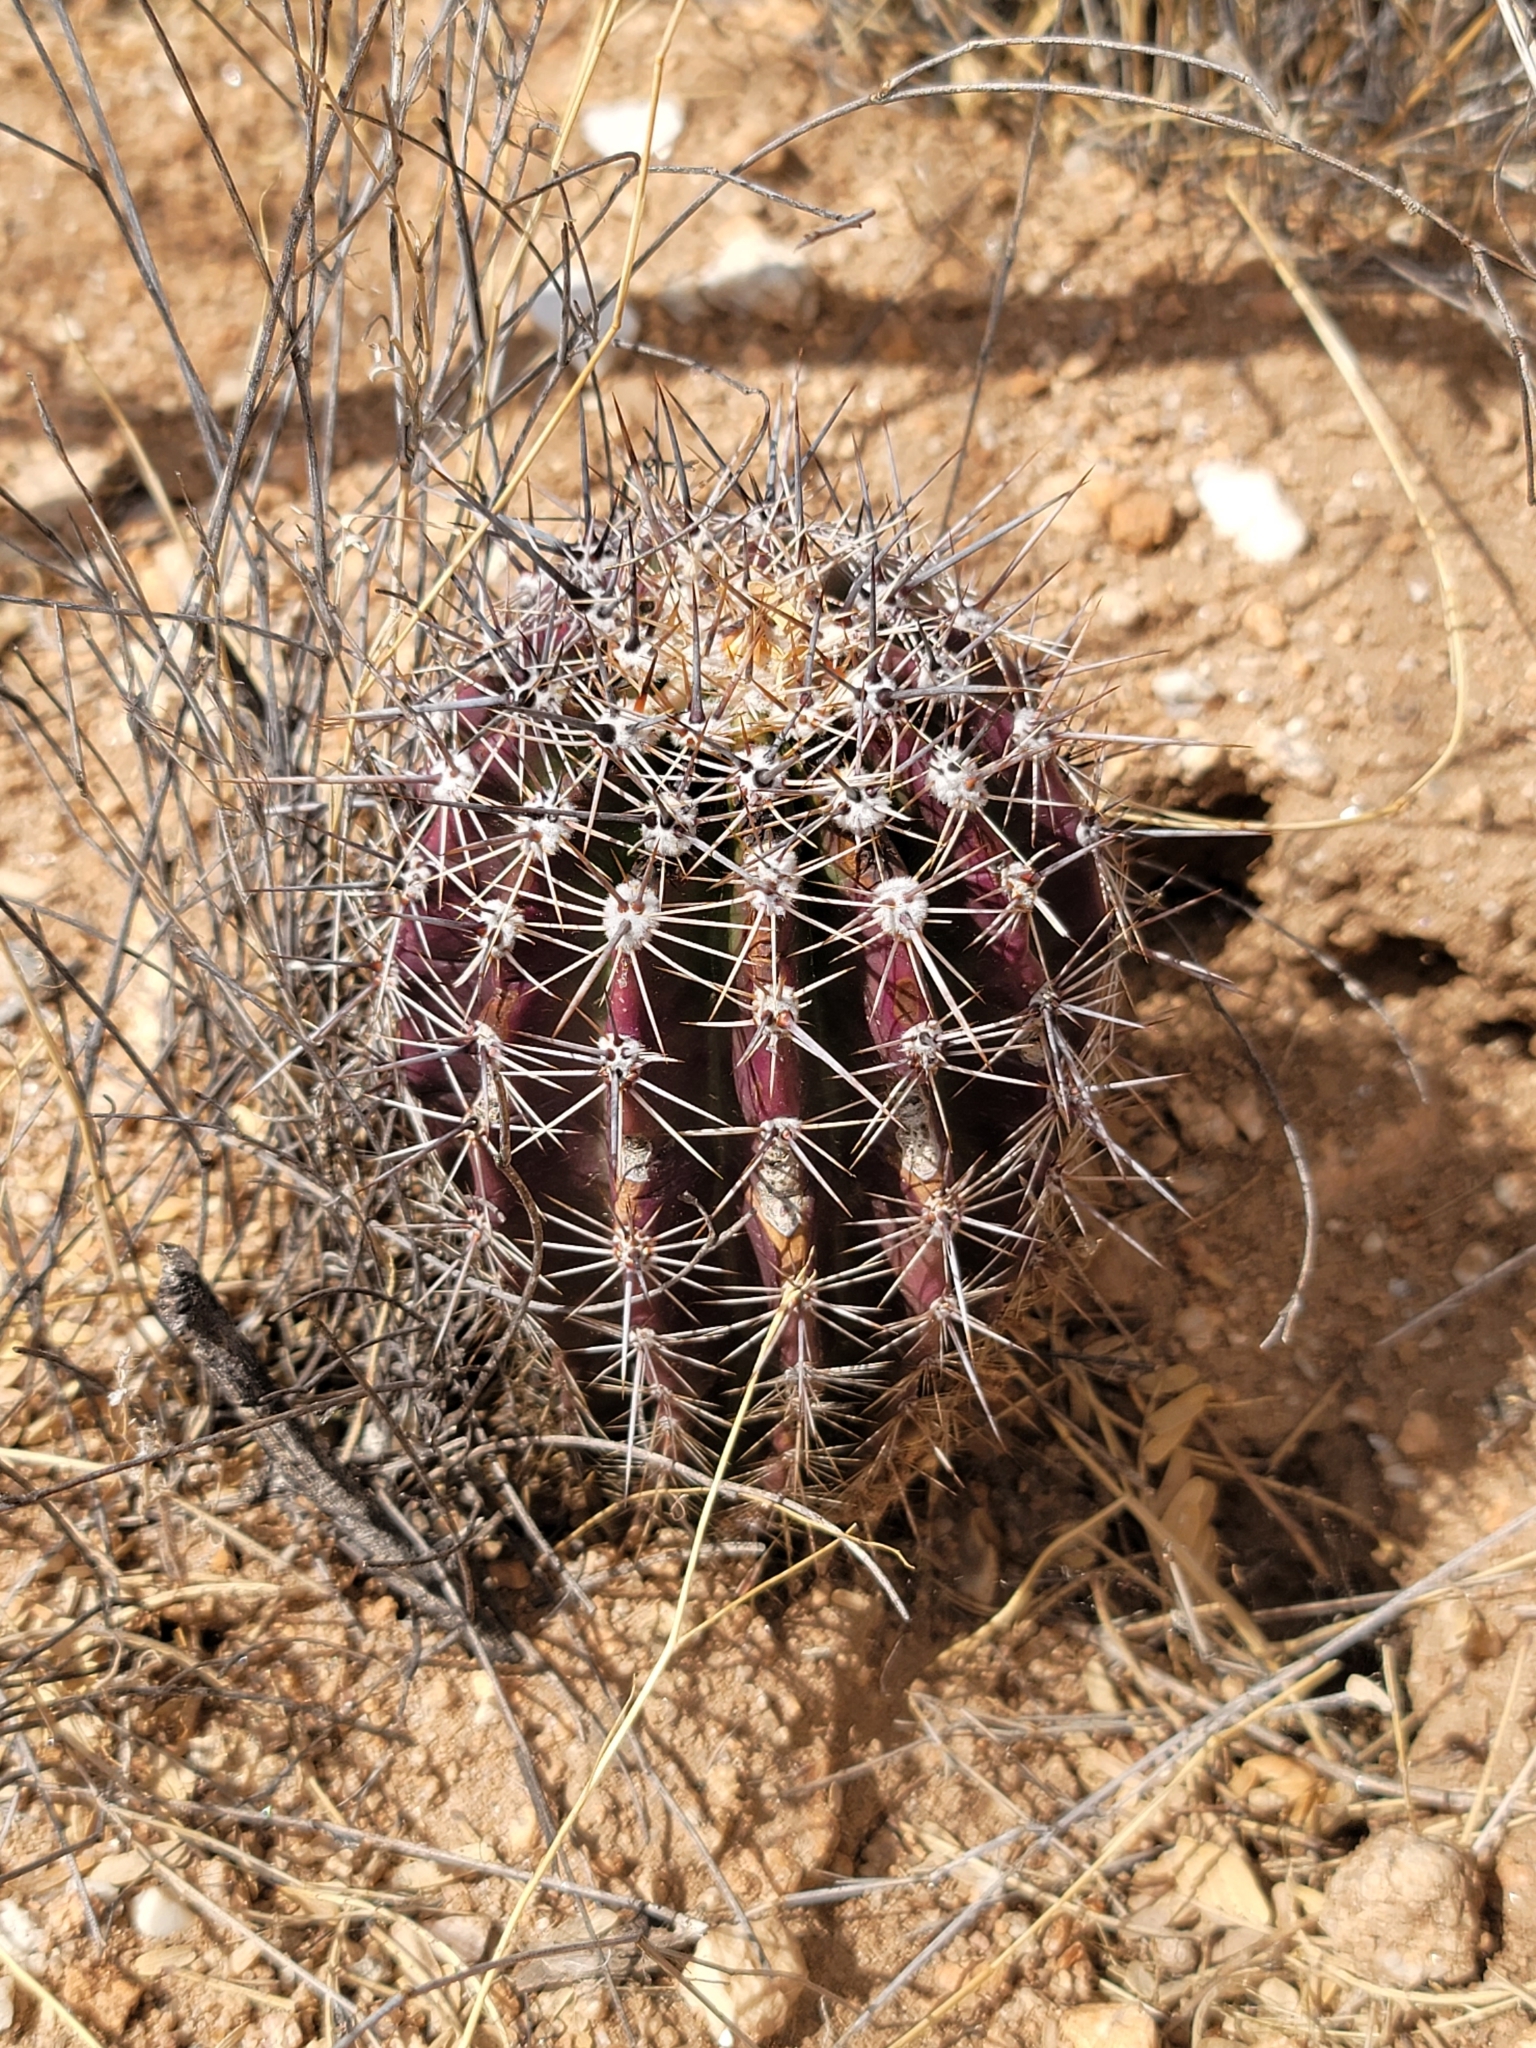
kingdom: Plantae
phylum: Tracheophyta
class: Magnoliopsida
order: Caryophyllales
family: Cactaceae
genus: Carnegiea
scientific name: Carnegiea gigantea
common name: Saguaro
